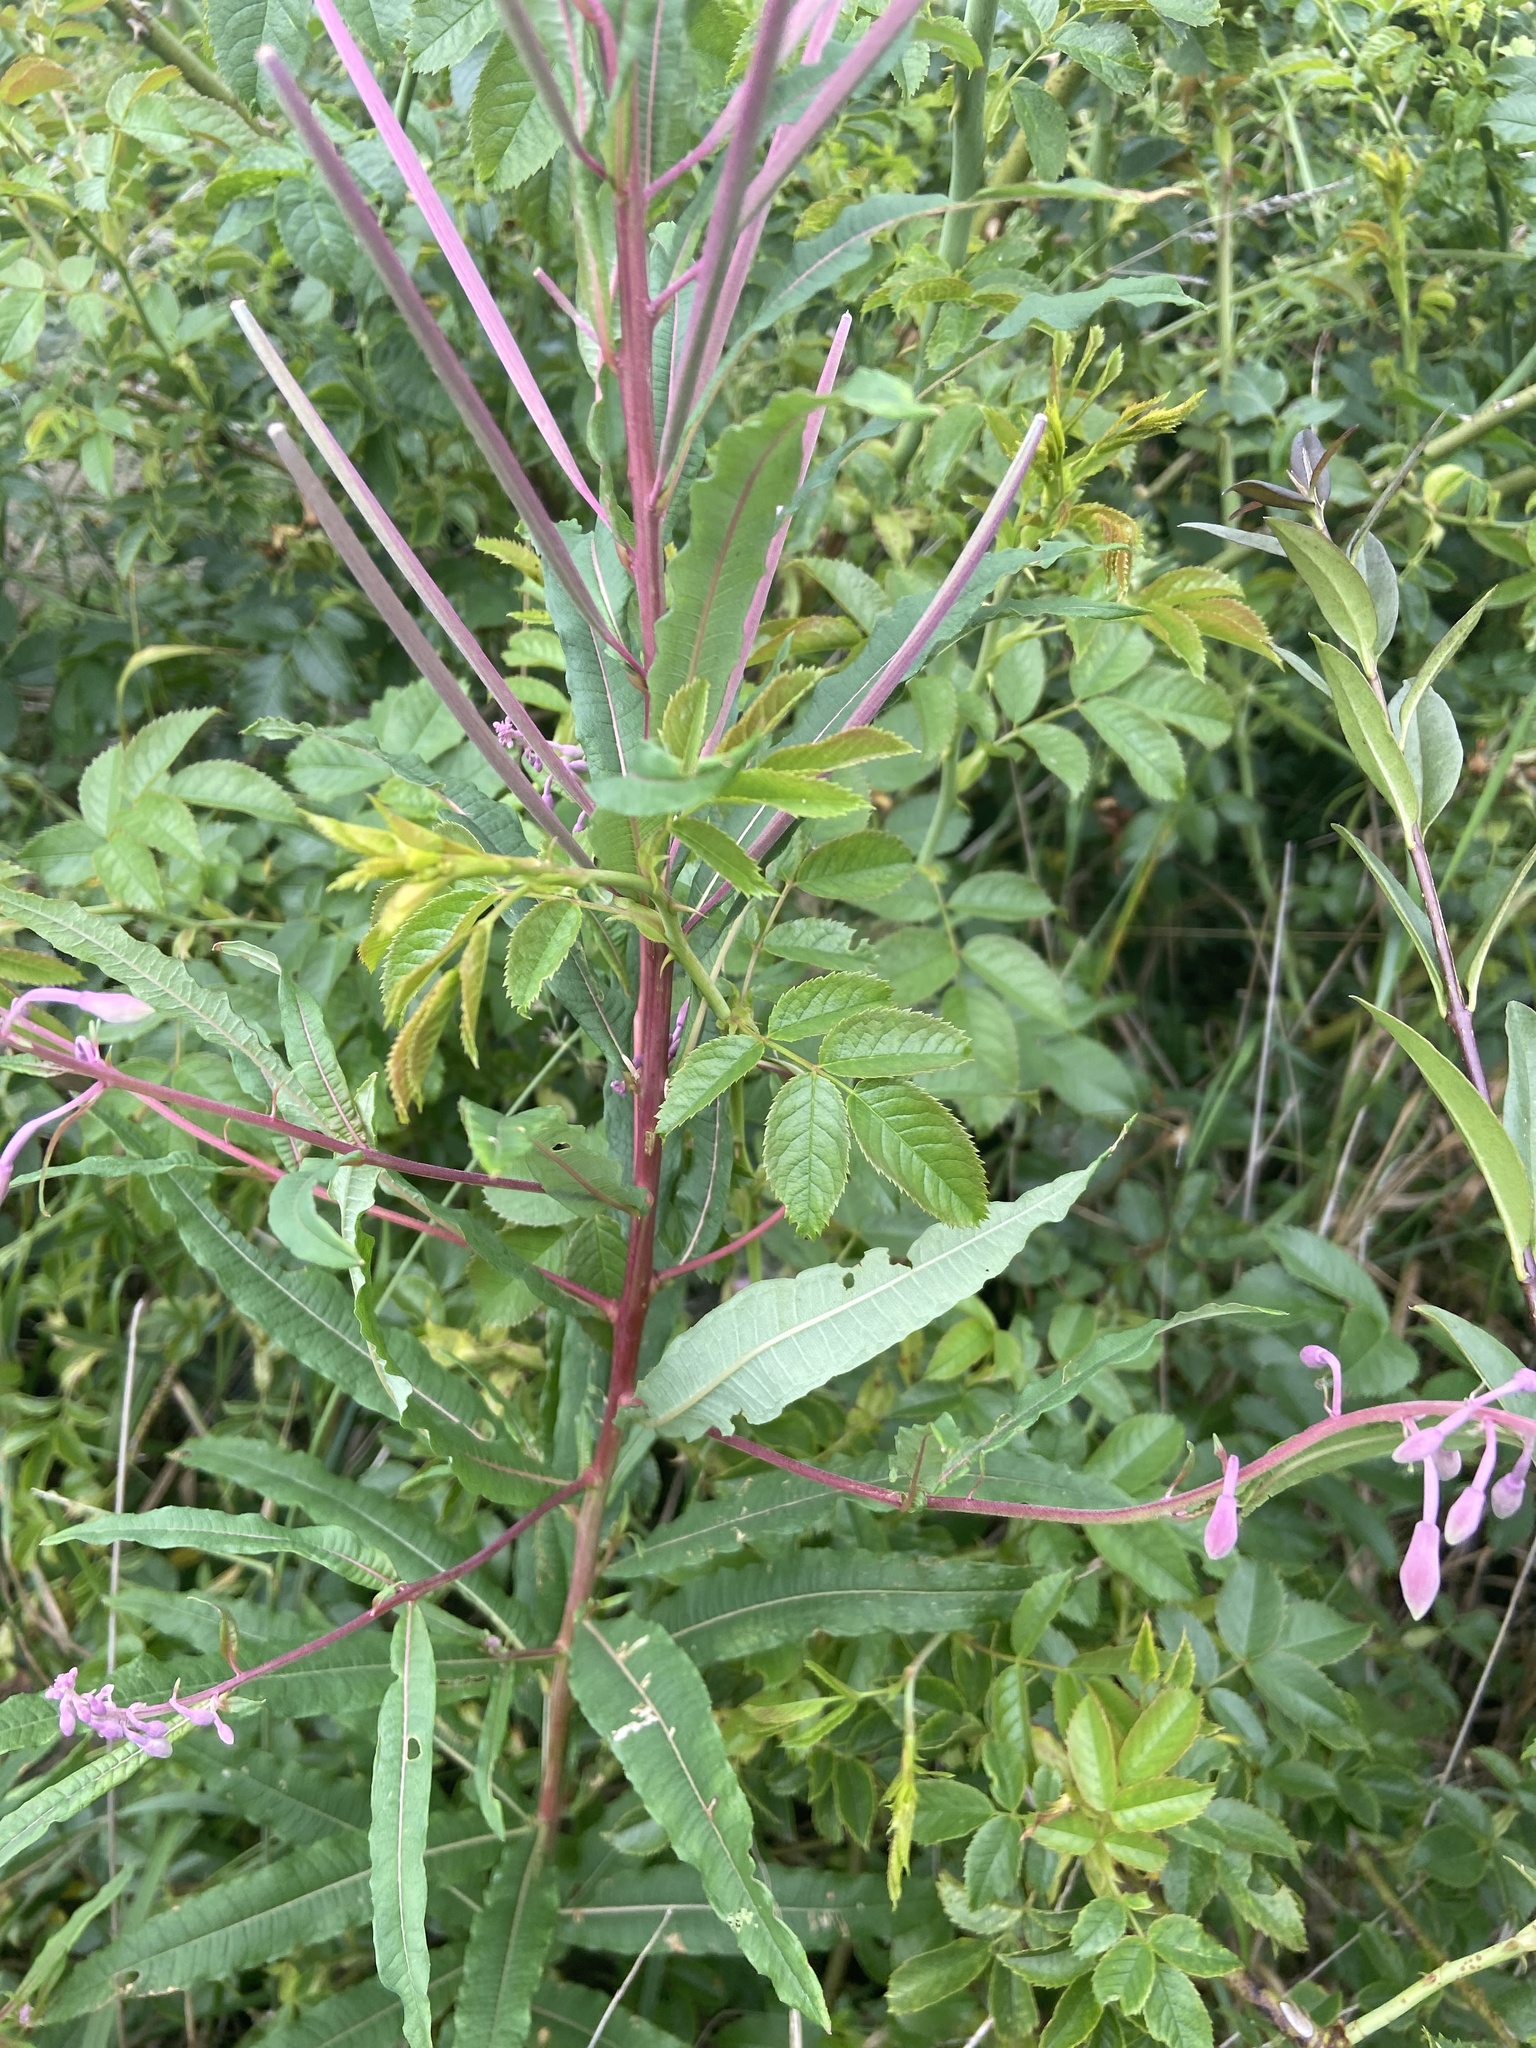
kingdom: Plantae
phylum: Tracheophyta
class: Magnoliopsida
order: Myrtales
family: Onagraceae
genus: Chamaenerion
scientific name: Chamaenerion angustifolium
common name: Fireweed
